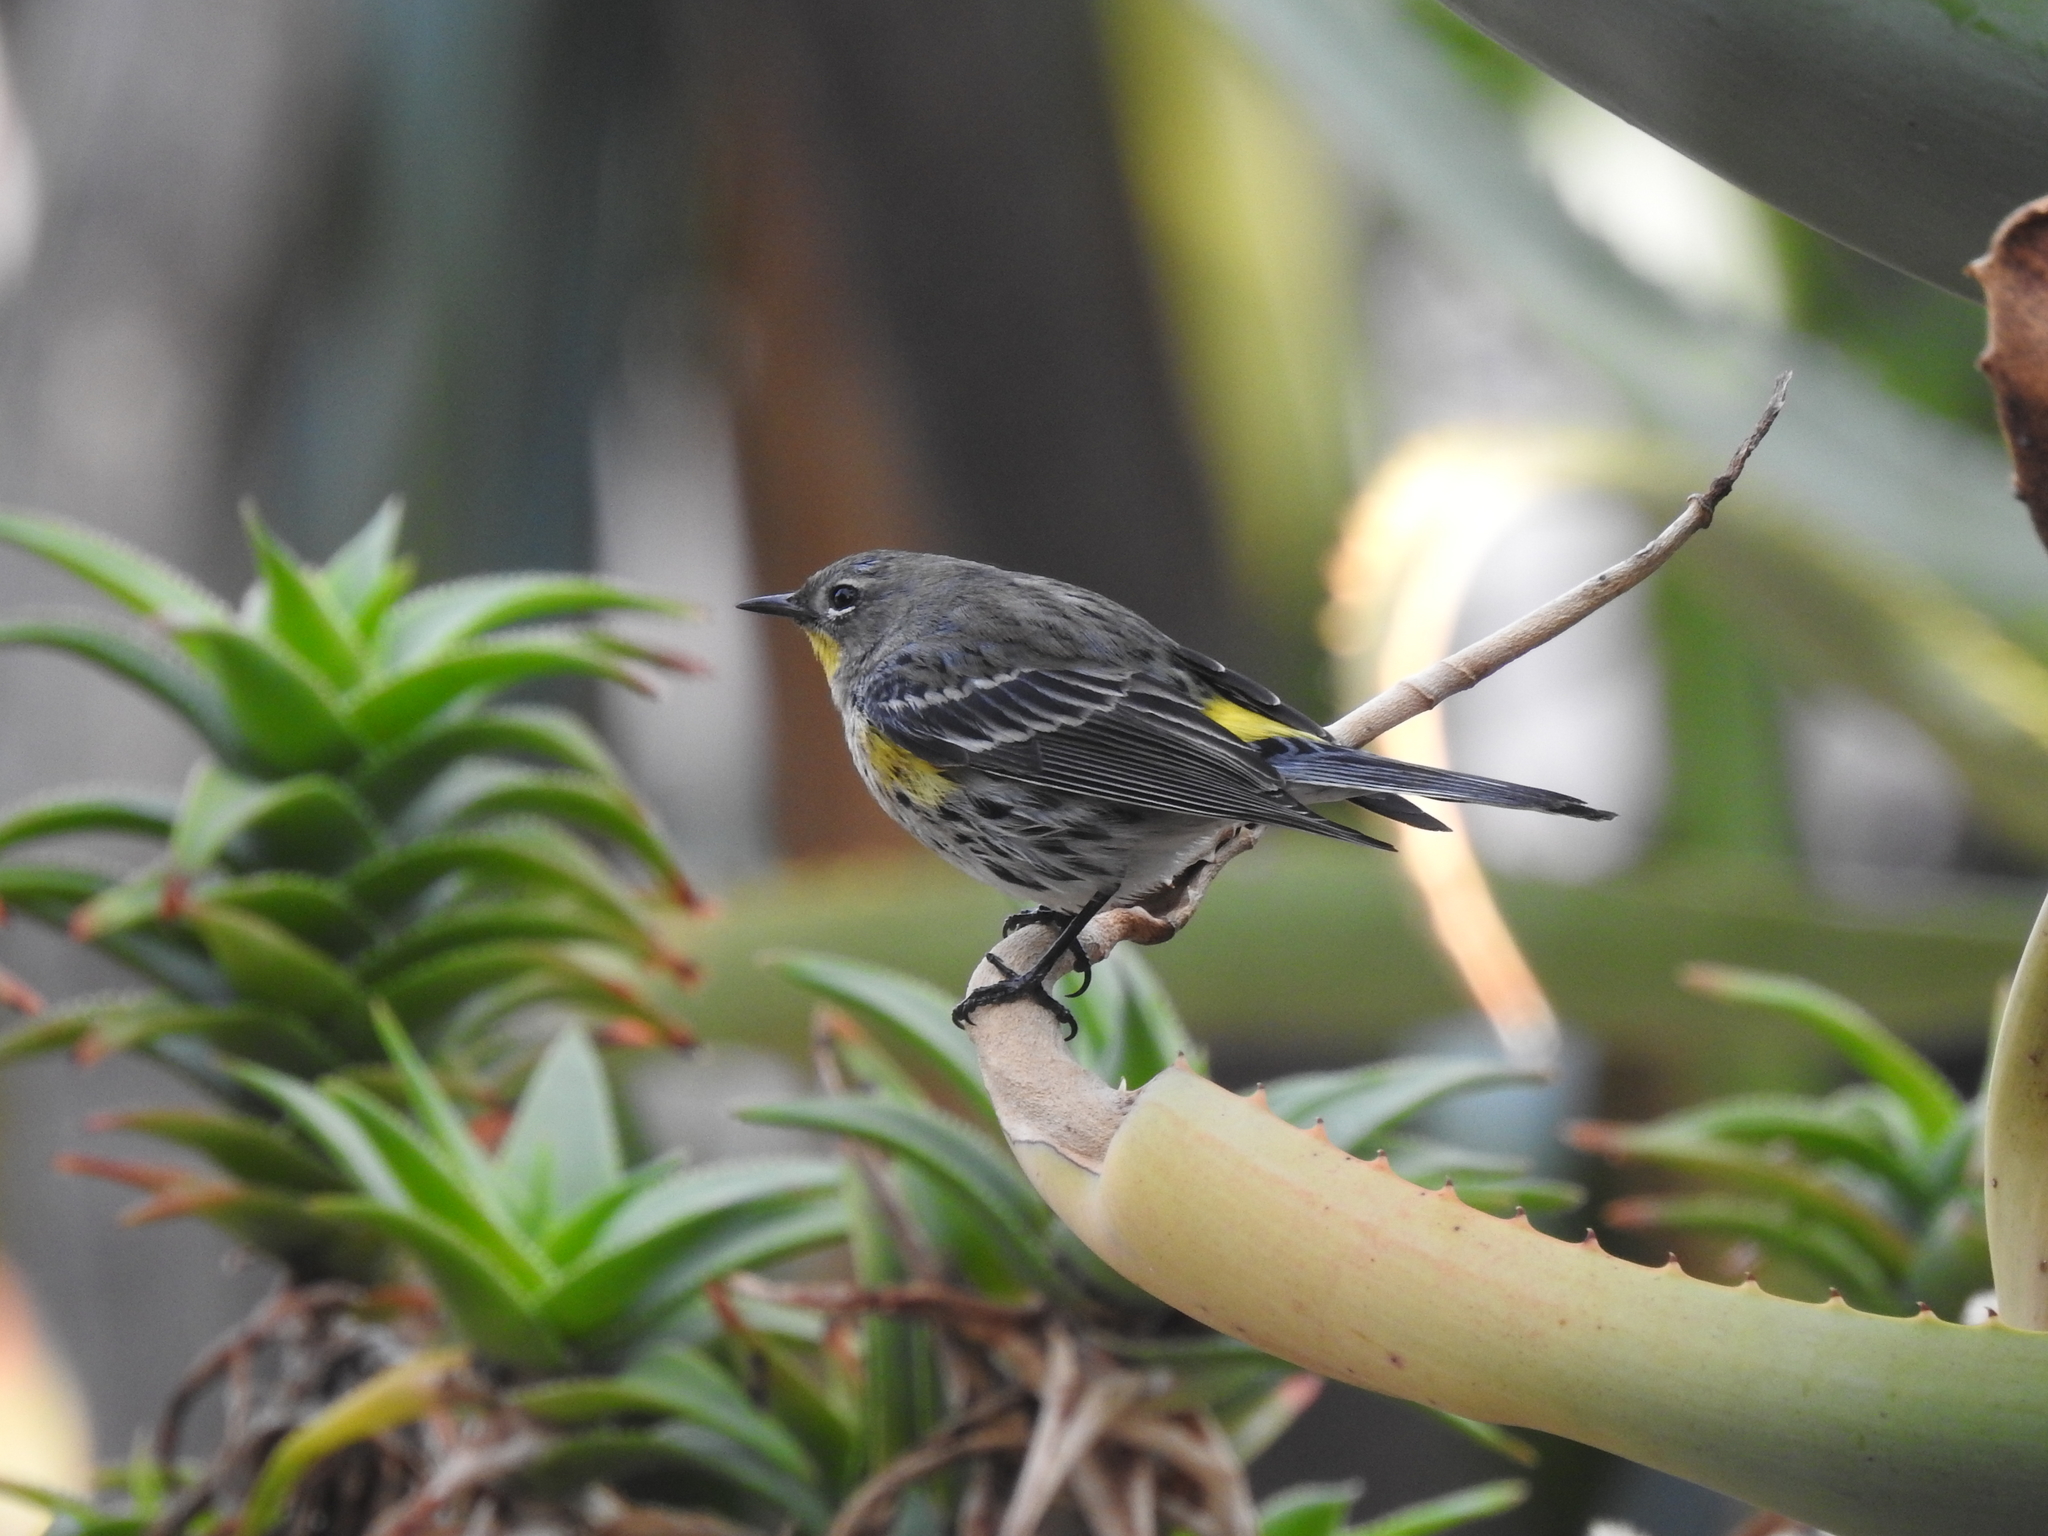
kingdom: Animalia
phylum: Chordata
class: Aves
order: Passeriformes
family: Parulidae
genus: Setophaga
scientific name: Setophaga auduboni
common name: Audubon's warbler
